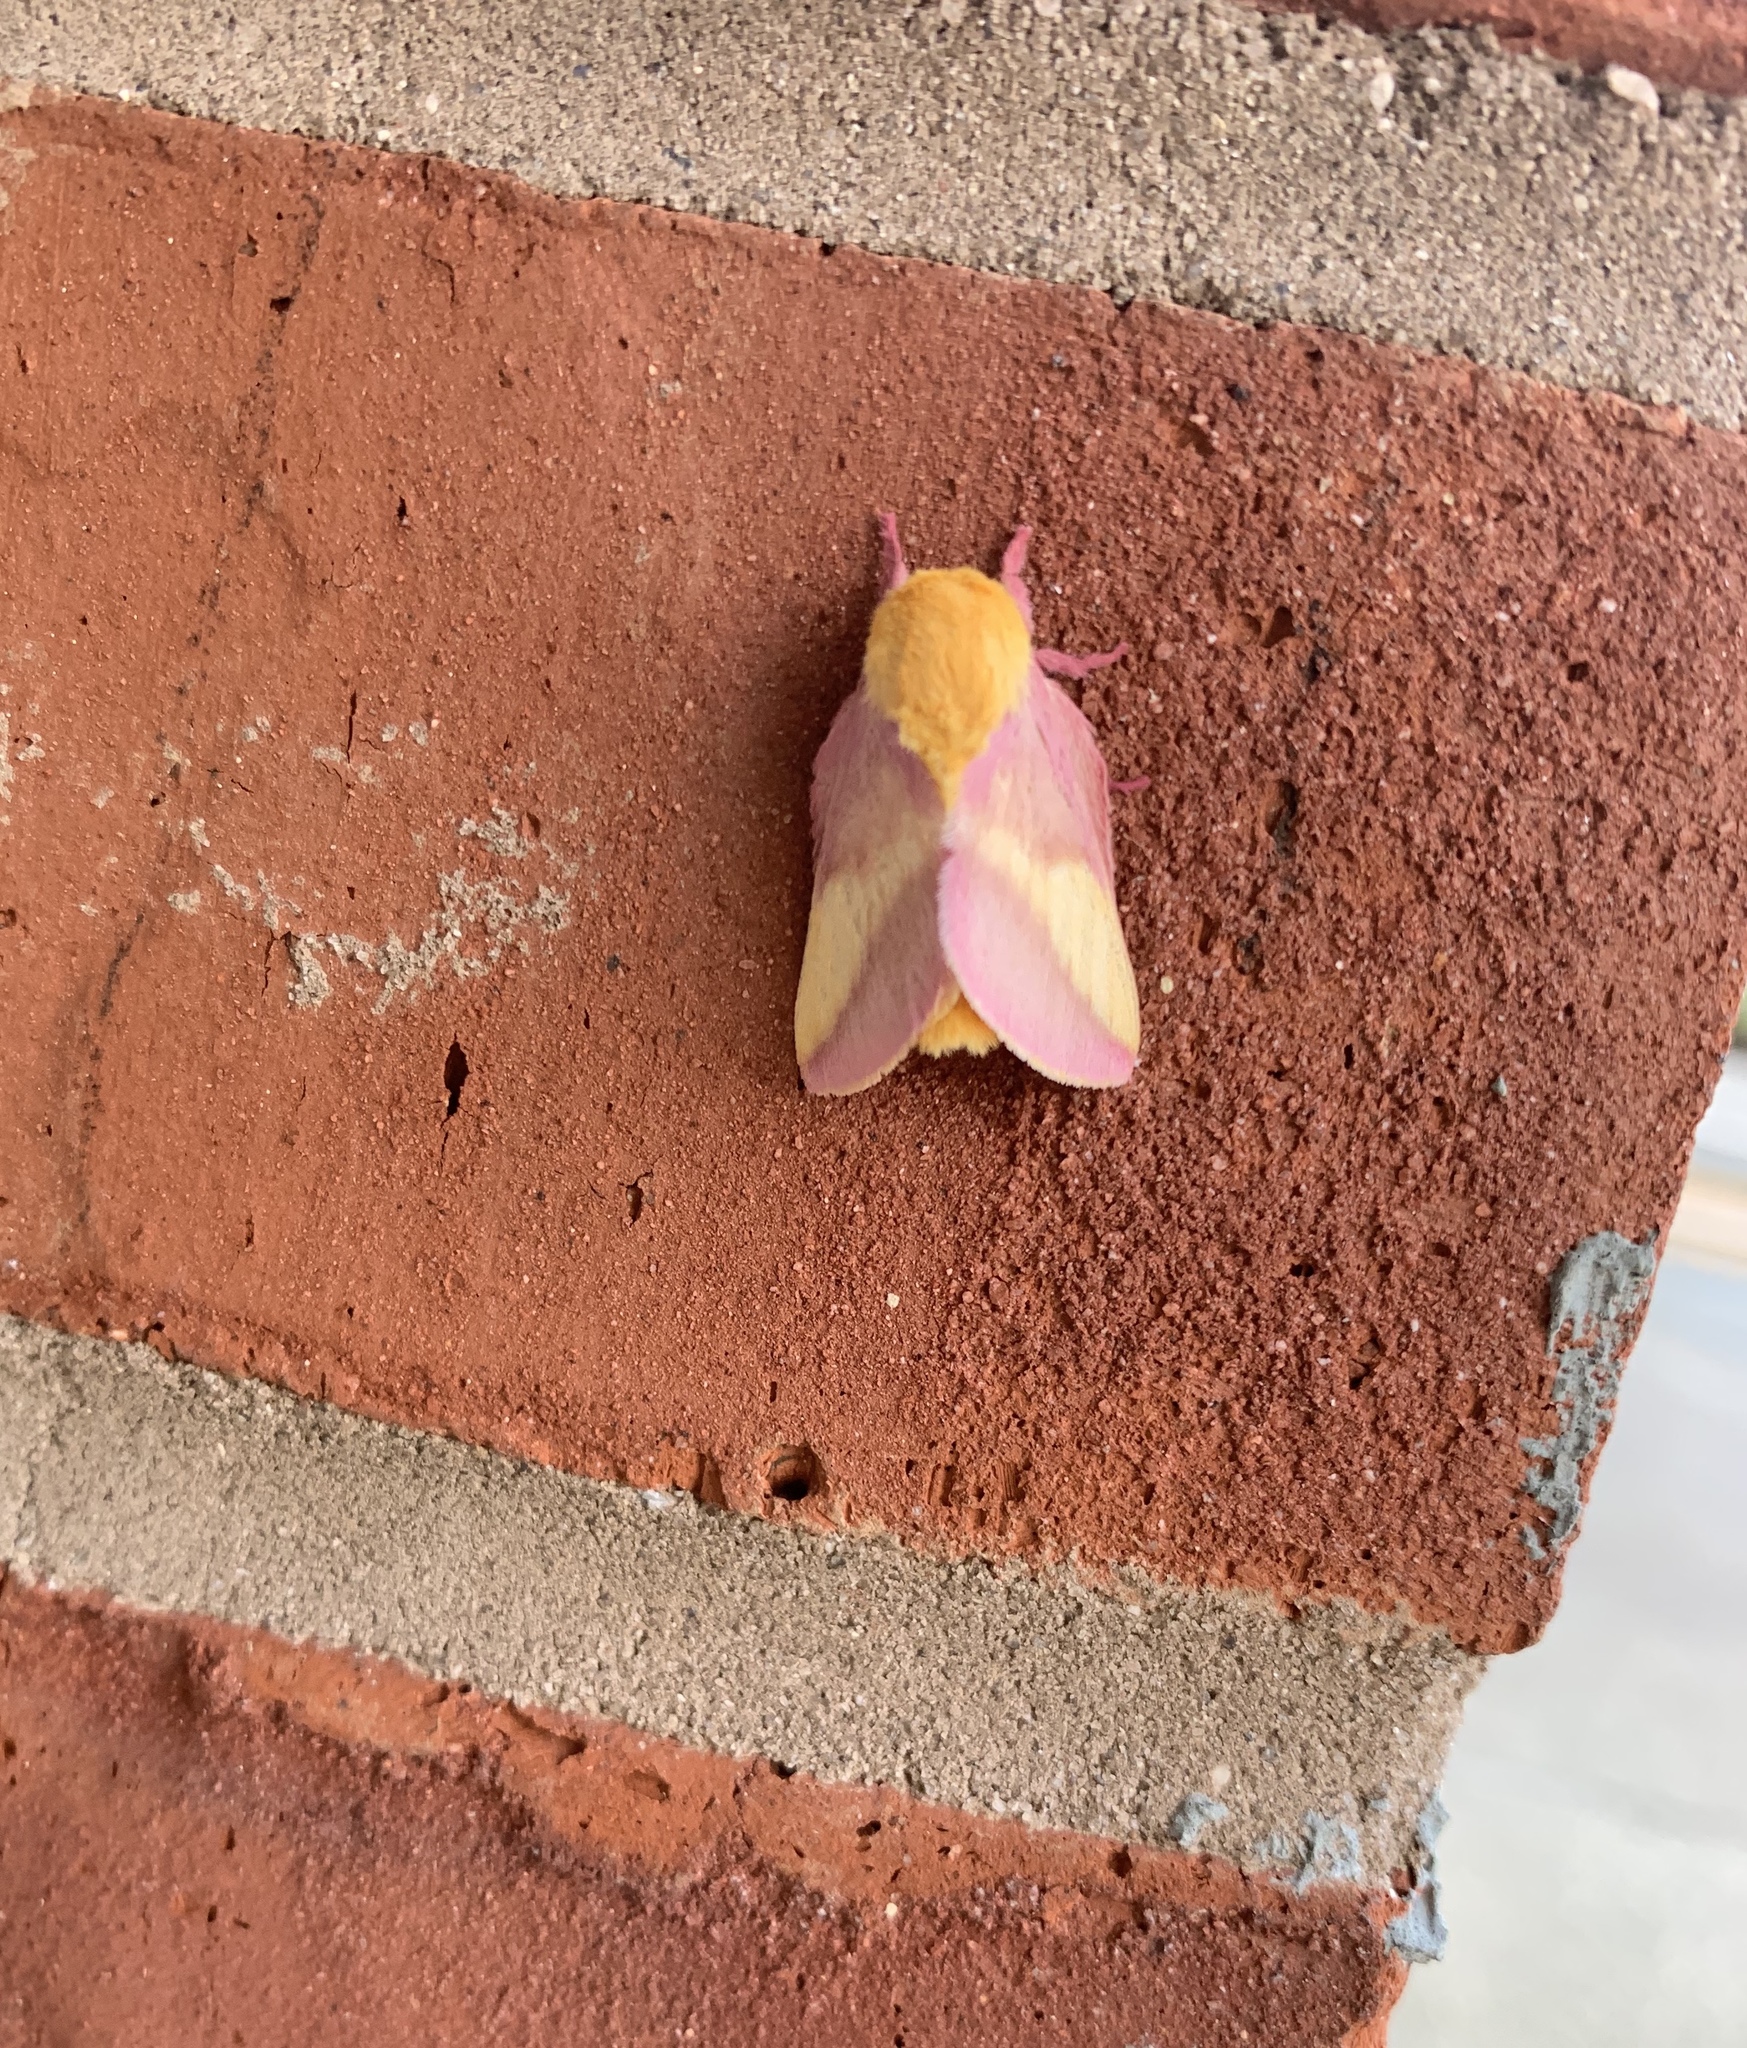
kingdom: Animalia
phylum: Arthropoda
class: Insecta
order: Lepidoptera
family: Saturniidae
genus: Dryocampa
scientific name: Dryocampa rubicunda
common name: Rosy maple moth
